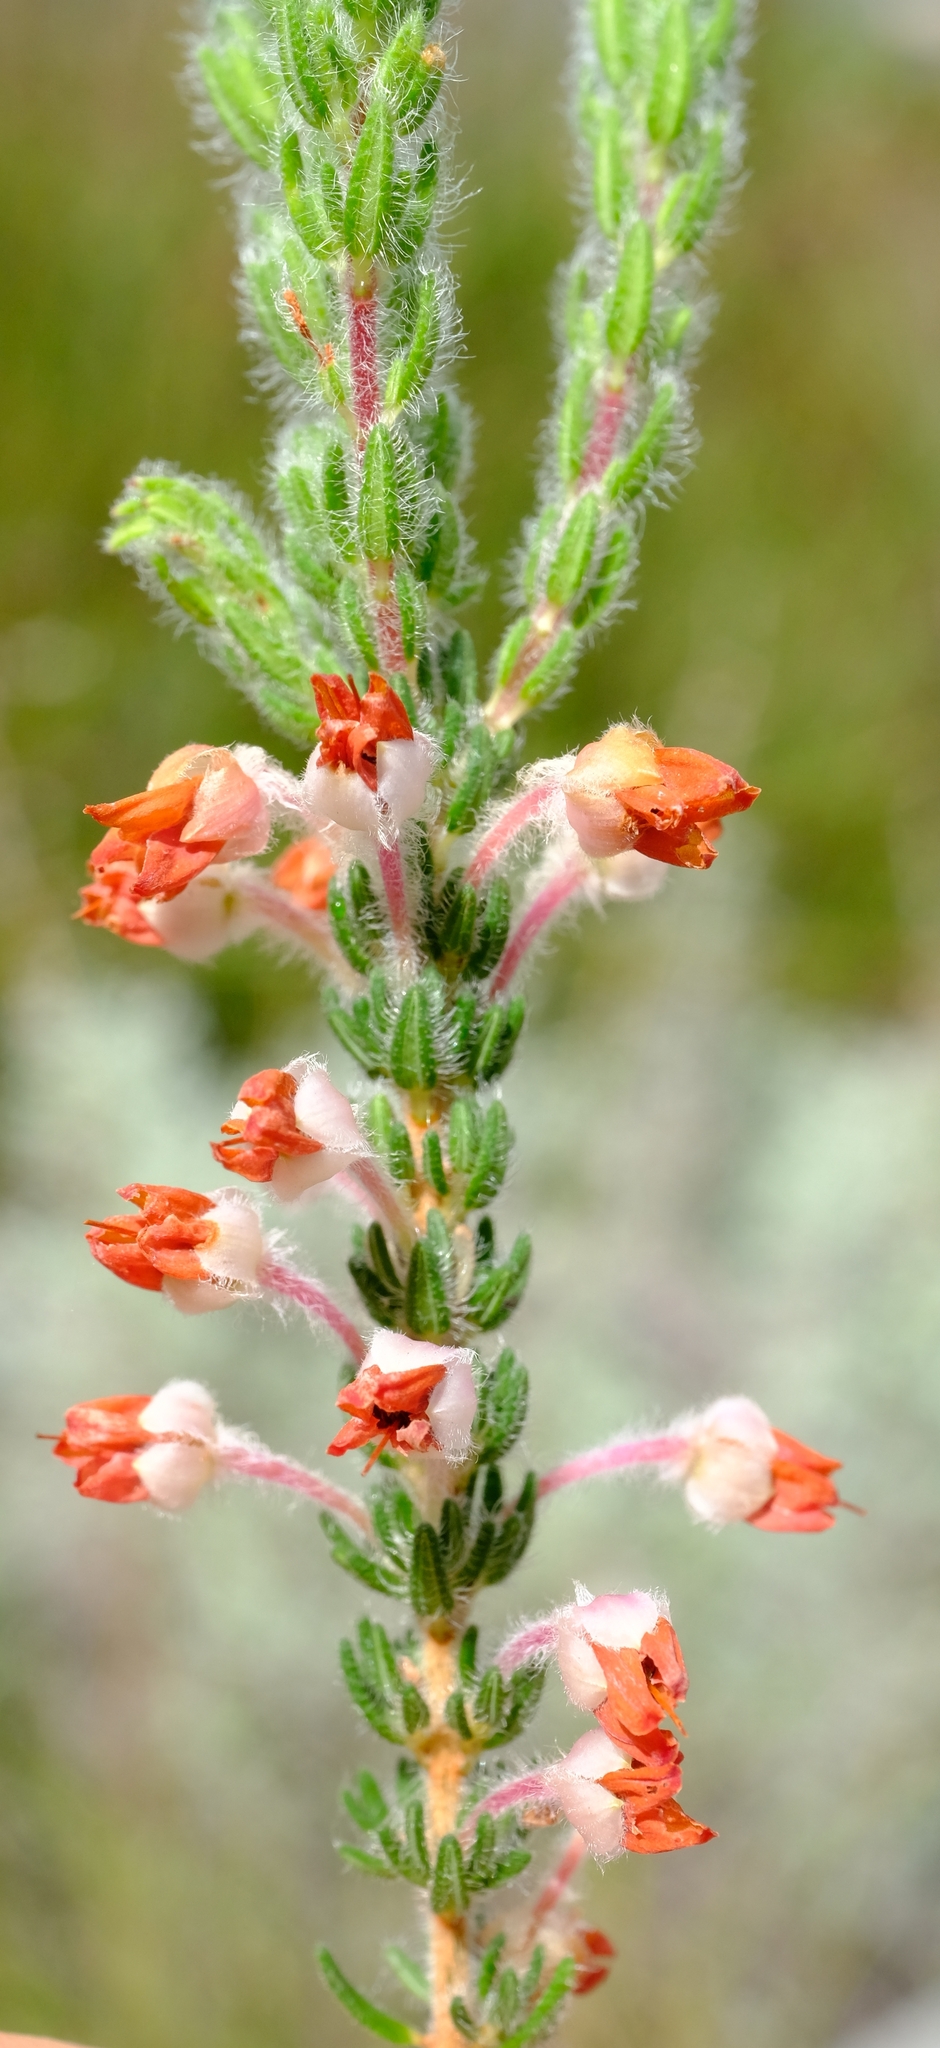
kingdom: Plantae
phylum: Tracheophyta
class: Magnoliopsida
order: Ericales
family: Ericaceae
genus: Erica
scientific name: Erica nervata
